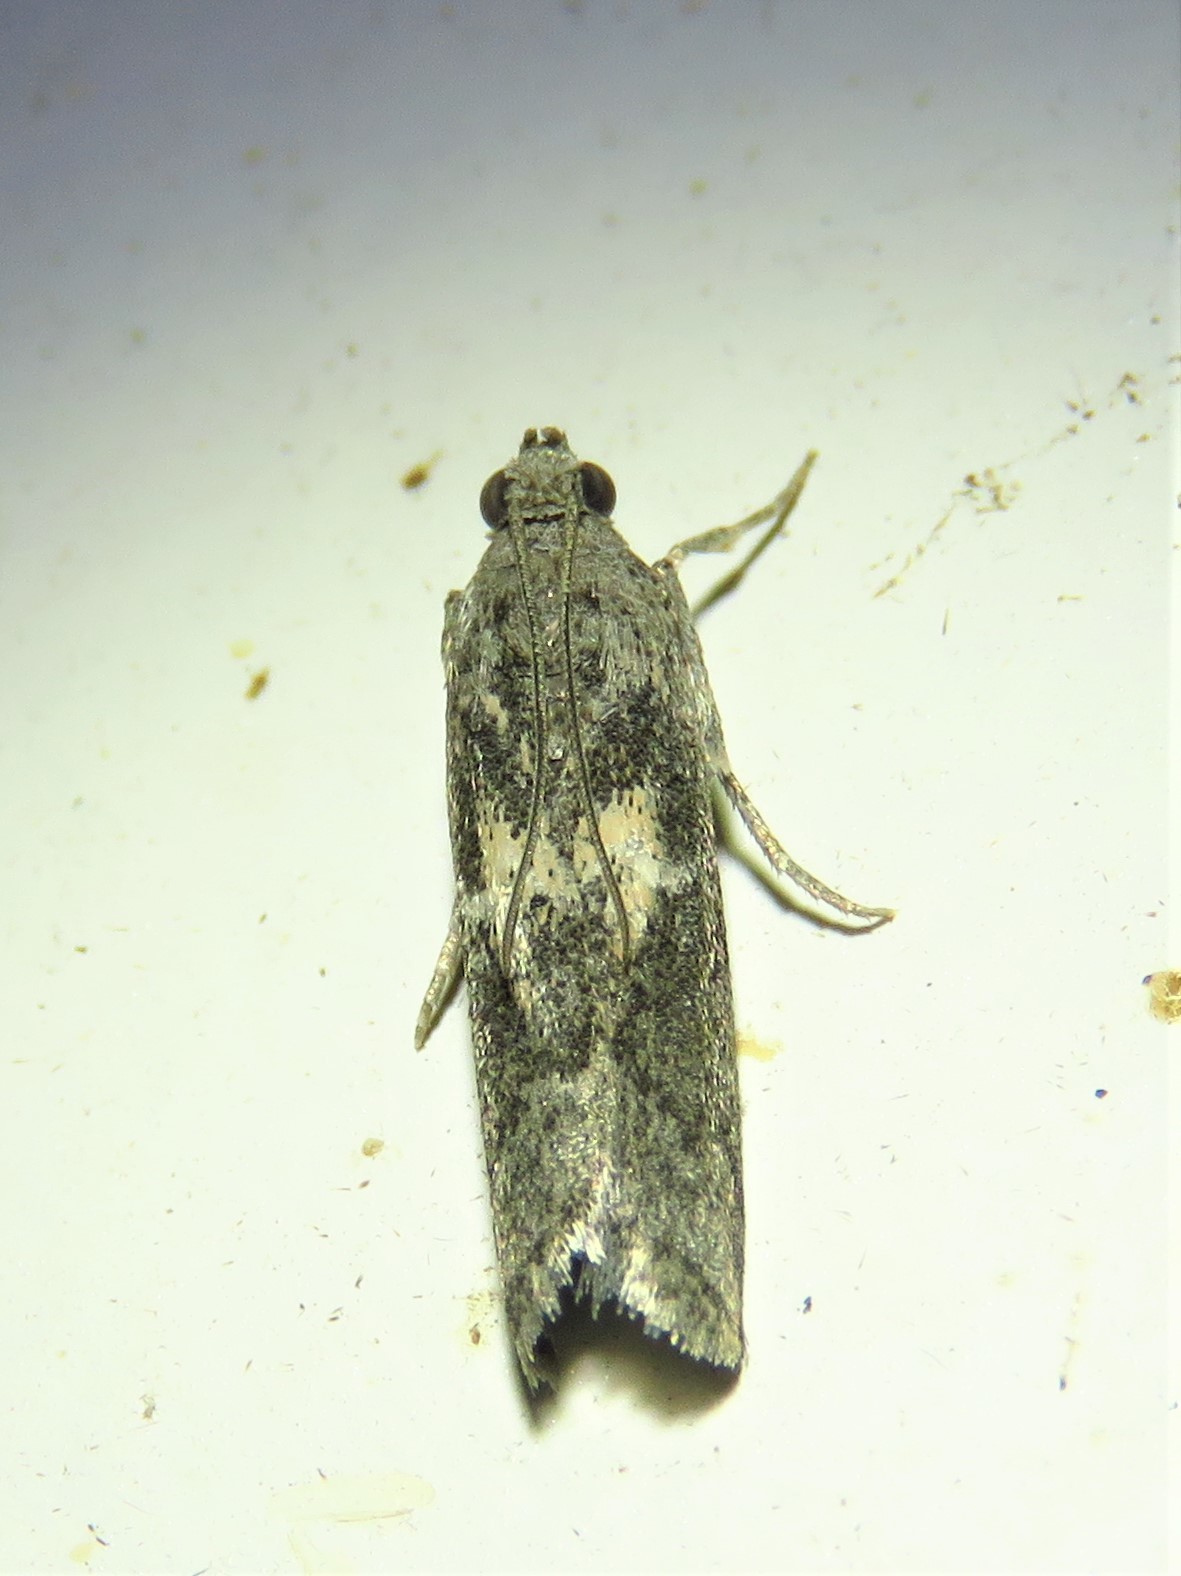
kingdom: Animalia
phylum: Arthropoda
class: Insecta
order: Lepidoptera
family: Pyralidae
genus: Tacoma
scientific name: Tacoma feriella
